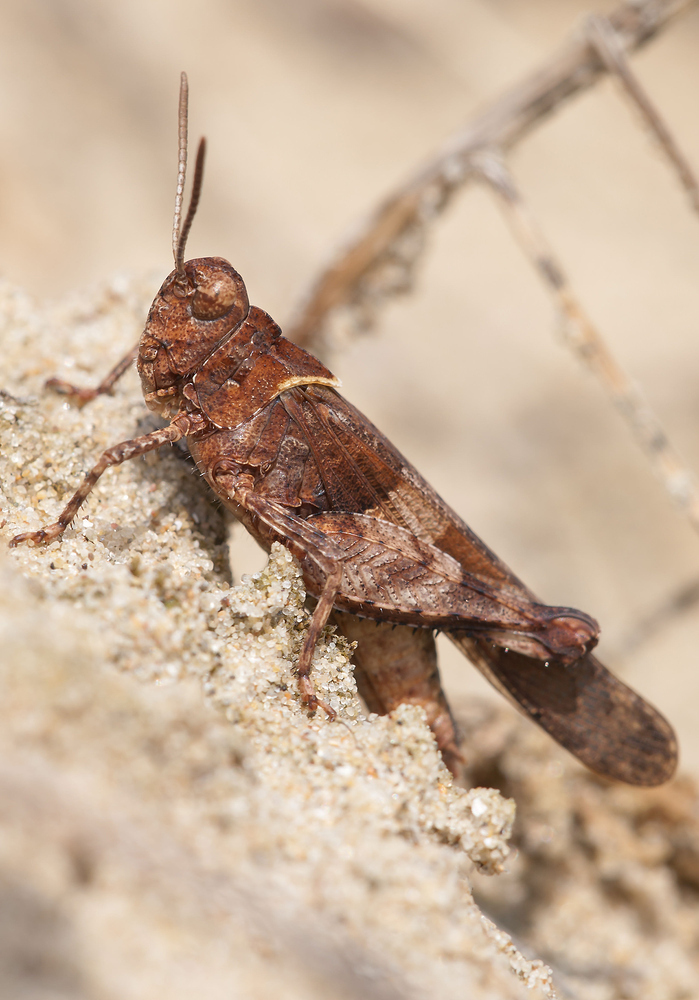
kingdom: Animalia
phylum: Arthropoda
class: Insecta
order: Orthoptera
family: Acrididae
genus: Oedipoda
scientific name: Oedipoda caerulescens
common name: Blue-winged grasshopper
